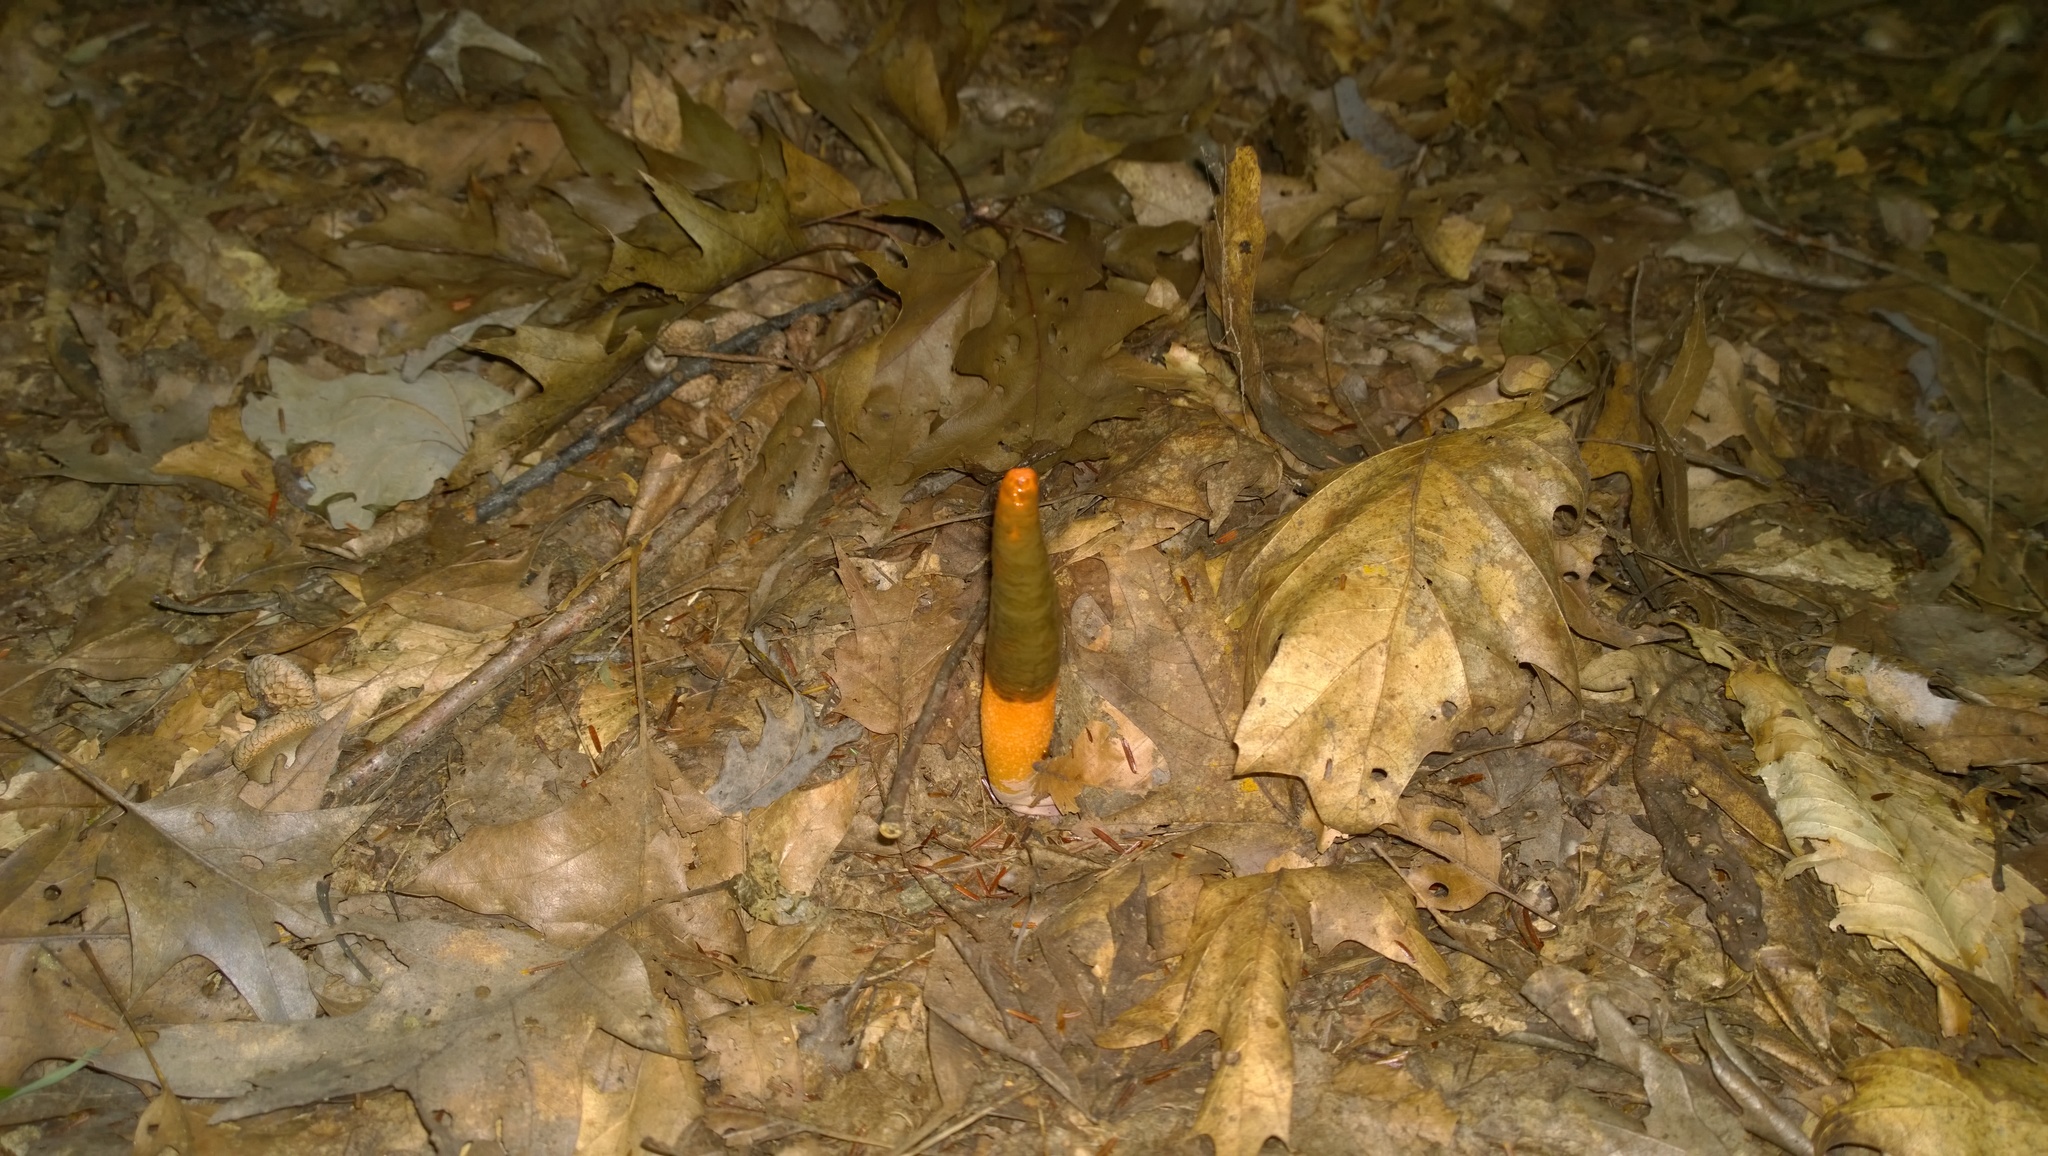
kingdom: Fungi
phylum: Basidiomycota
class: Agaricomycetes
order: Phallales
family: Phallaceae
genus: Mutinus
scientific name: Mutinus elegans
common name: Devil's dipstick
